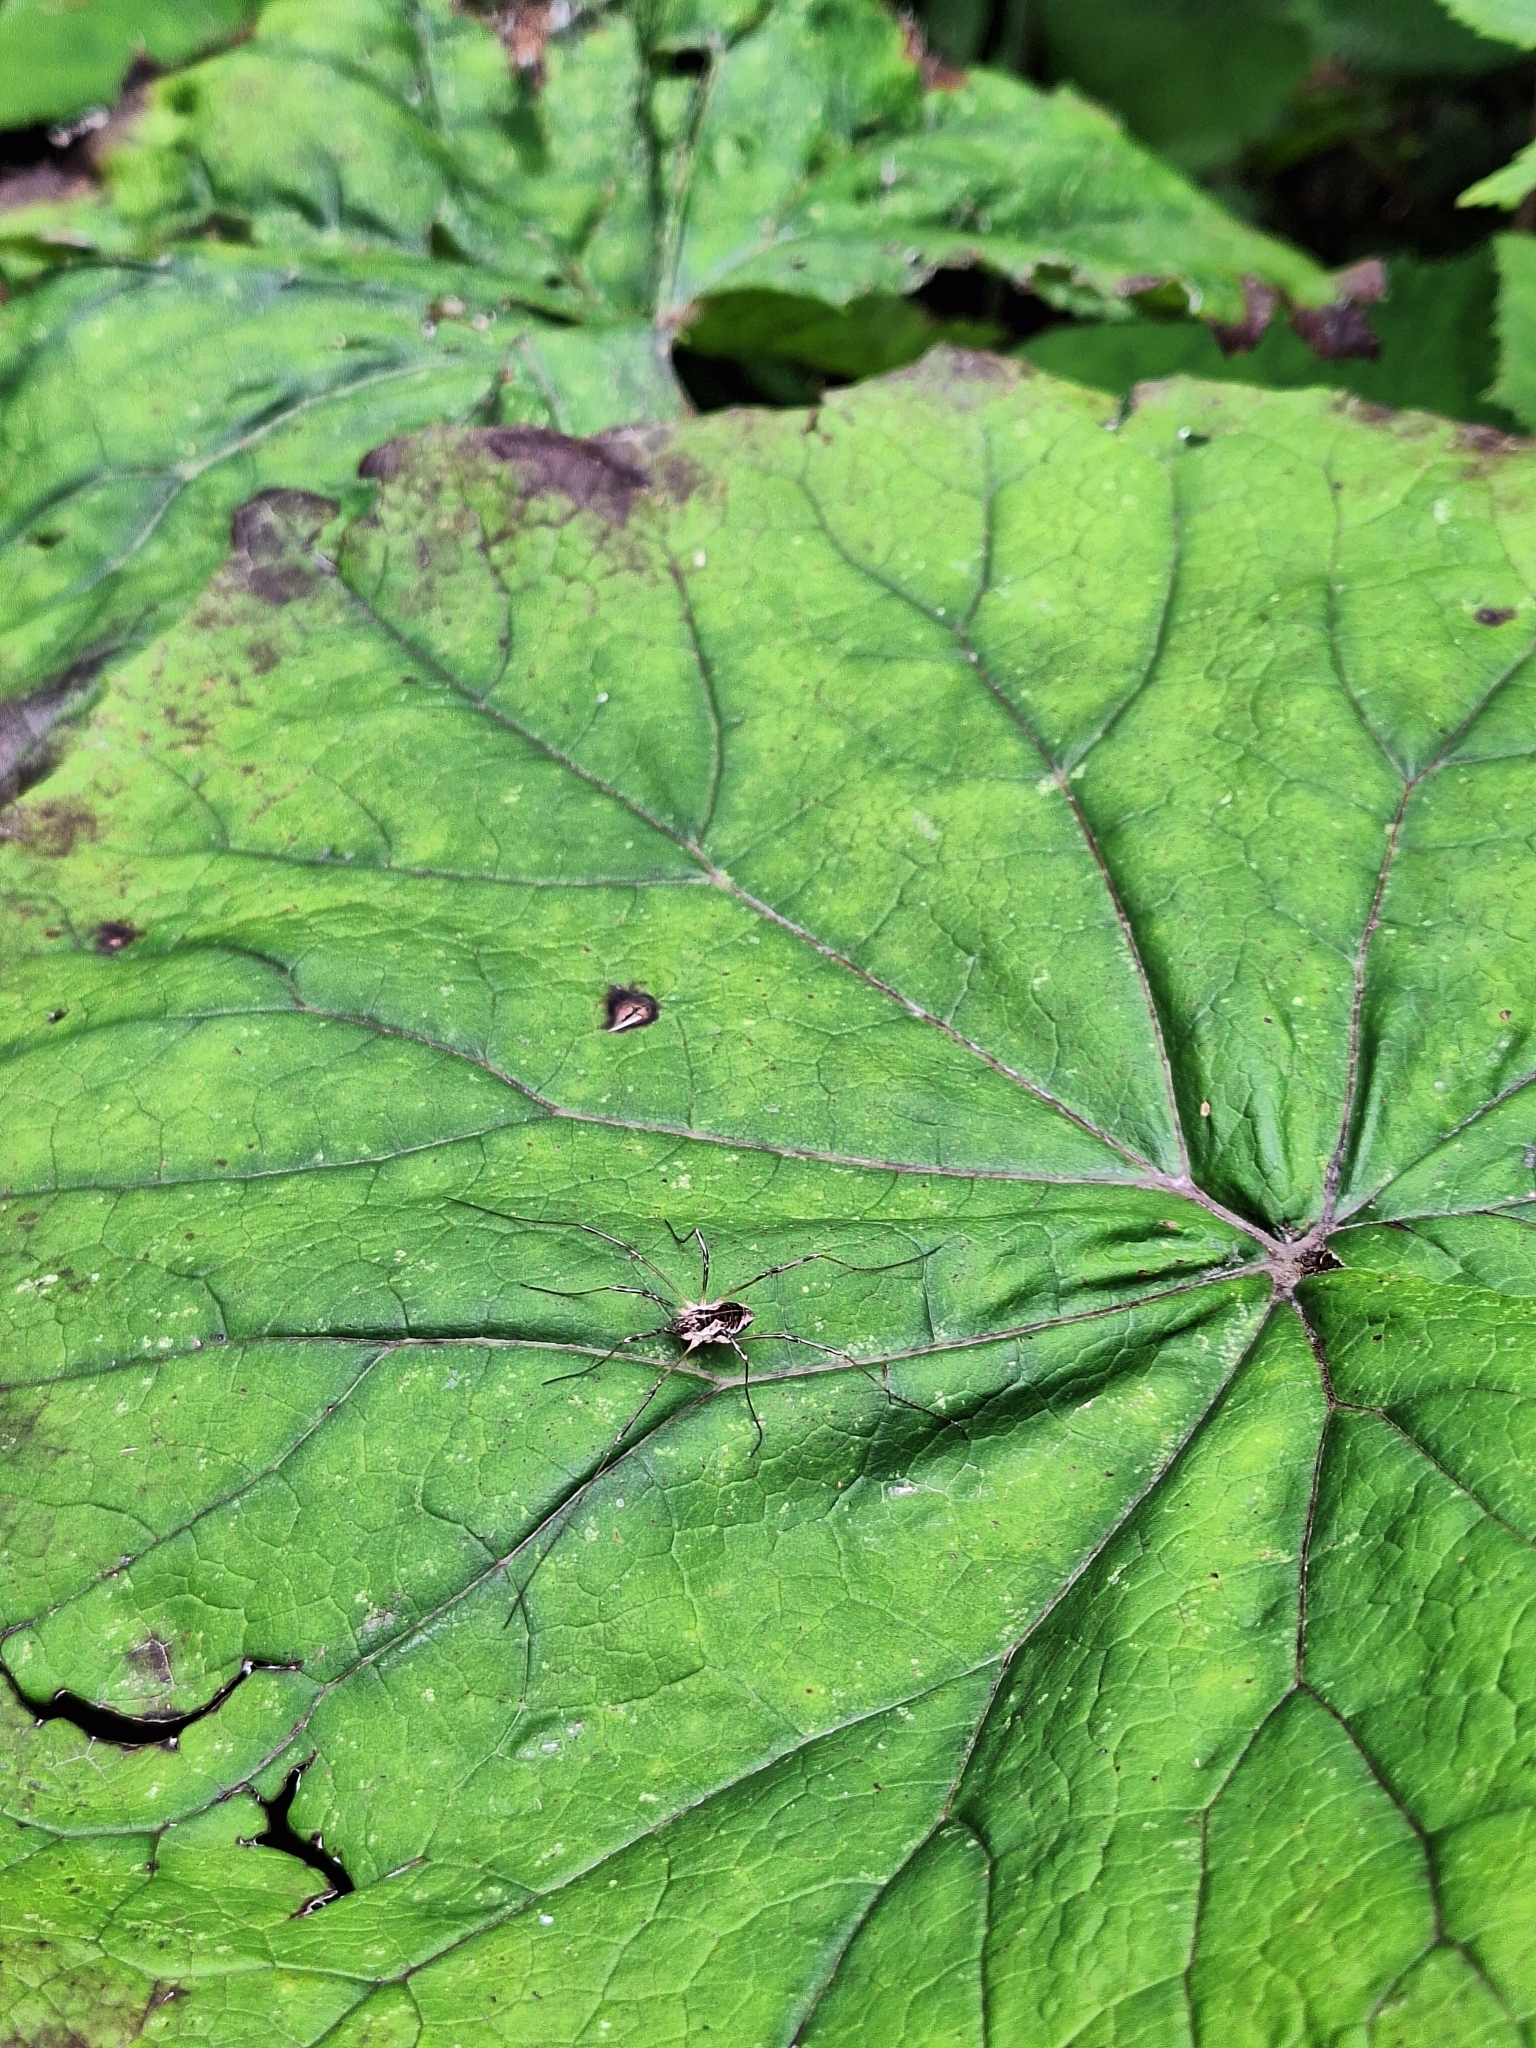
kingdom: Animalia
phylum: Arthropoda
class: Arachnida
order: Opiliones
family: Phalangiidae
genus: Mitopus
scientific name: Mitopus morio
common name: Saddleback harvestman
